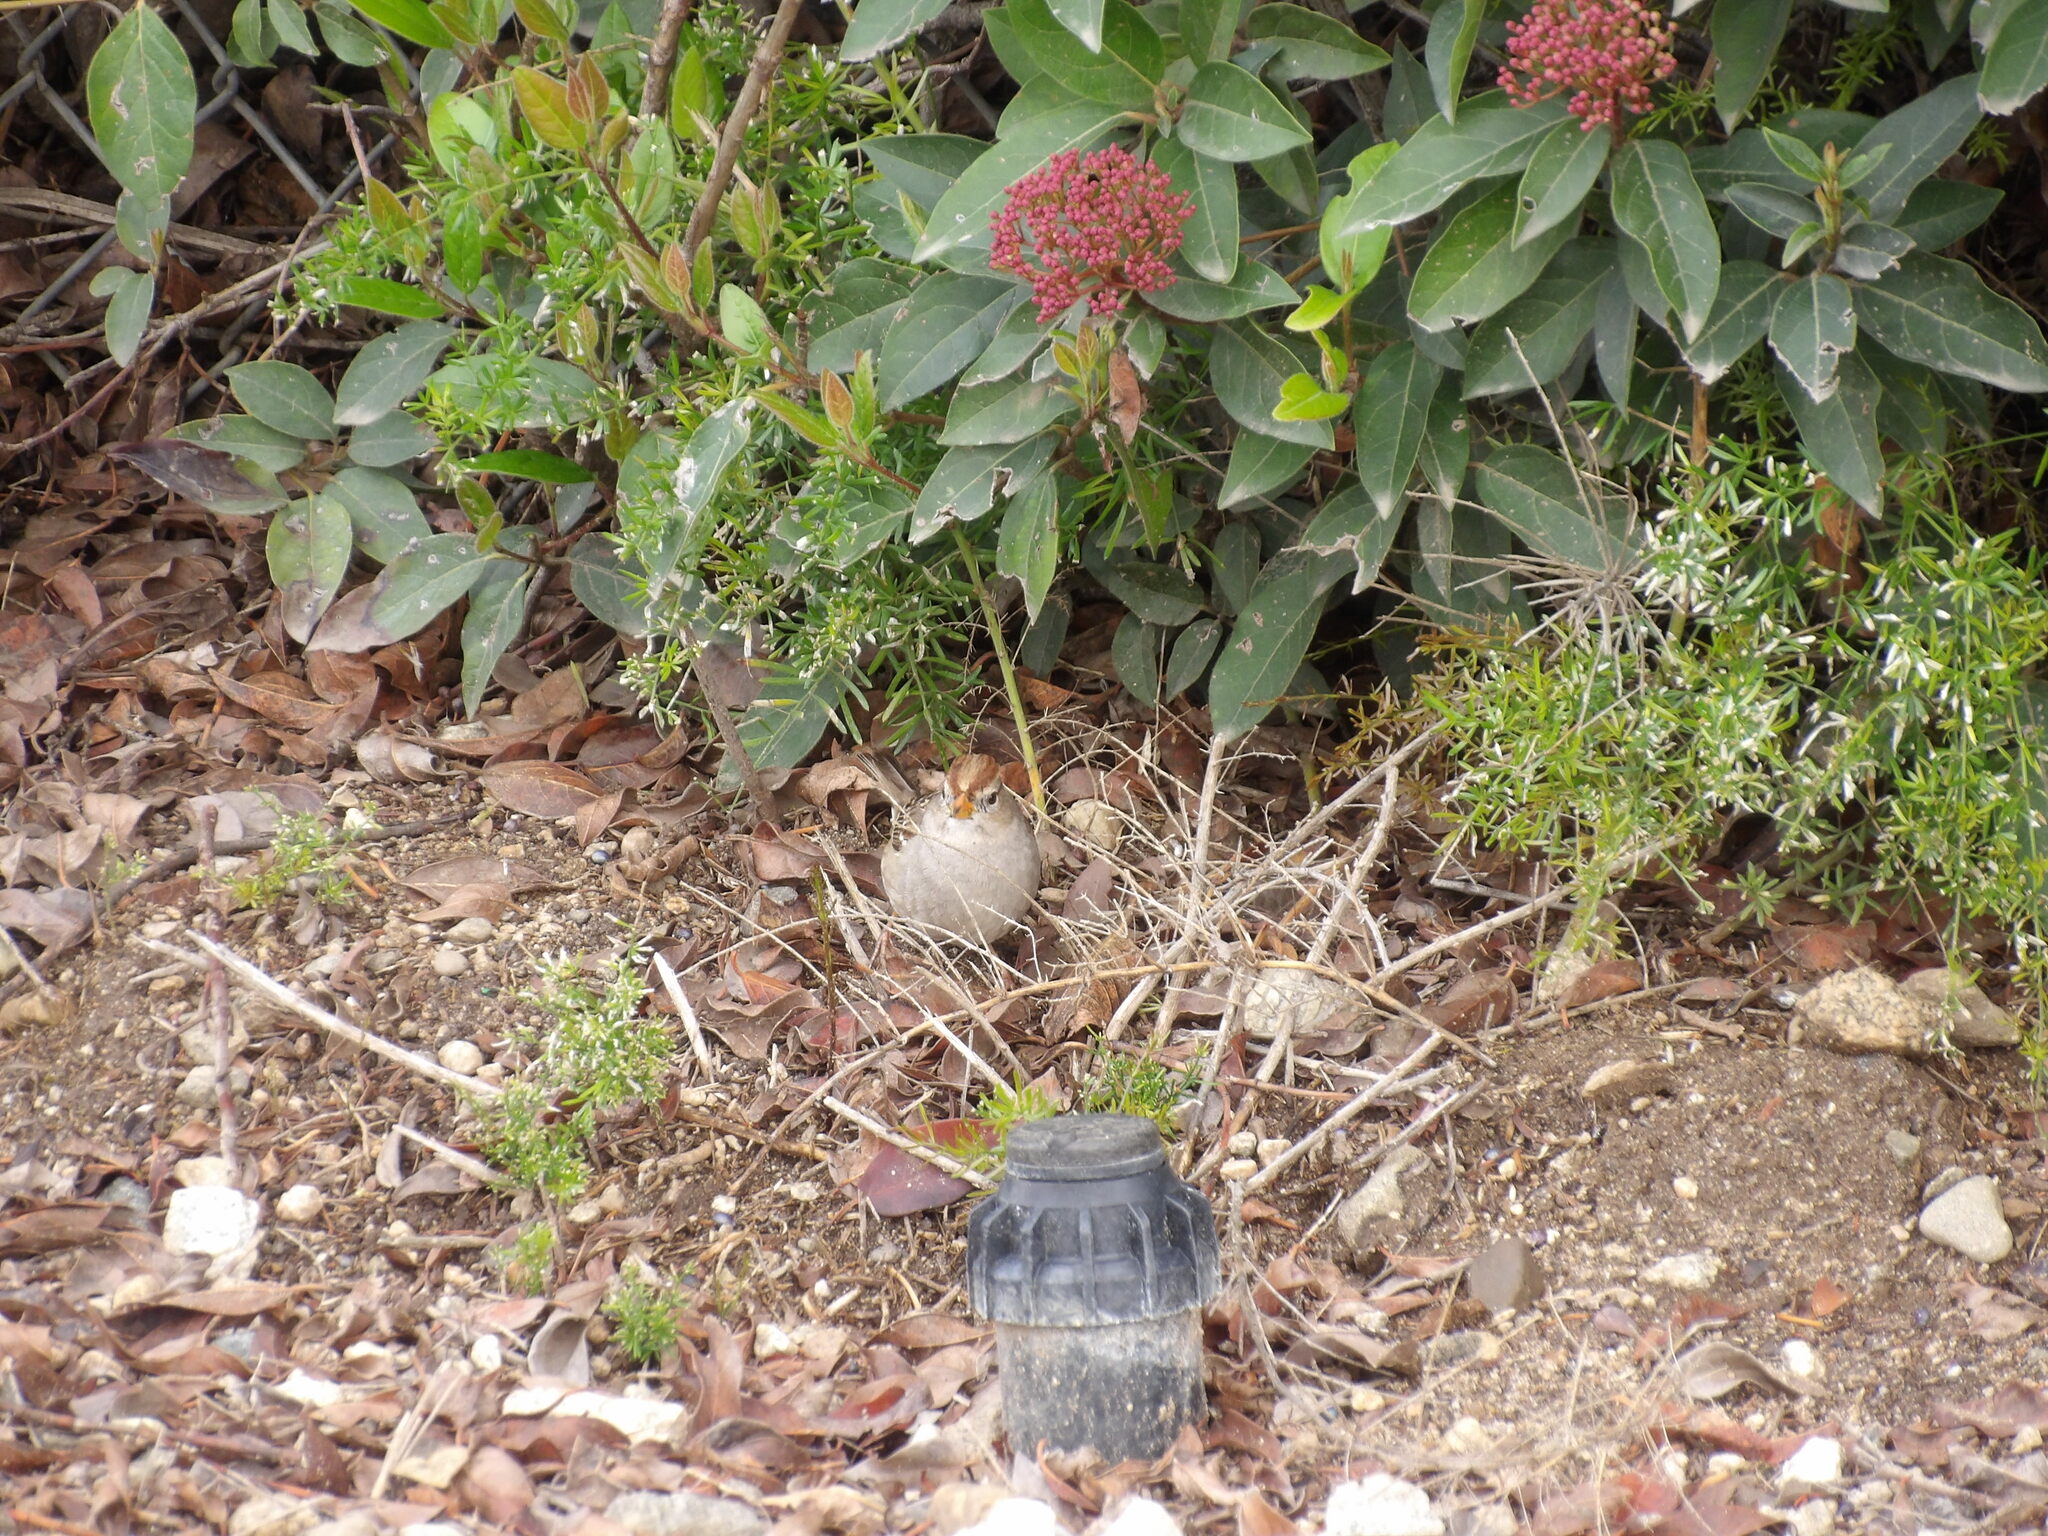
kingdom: Animalia
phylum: Chordata
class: Aves
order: Passeriformes
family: Passerellidae
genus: Zonotrichia
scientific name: Zonotrichia leucophrys
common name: White-crowned sparrow
